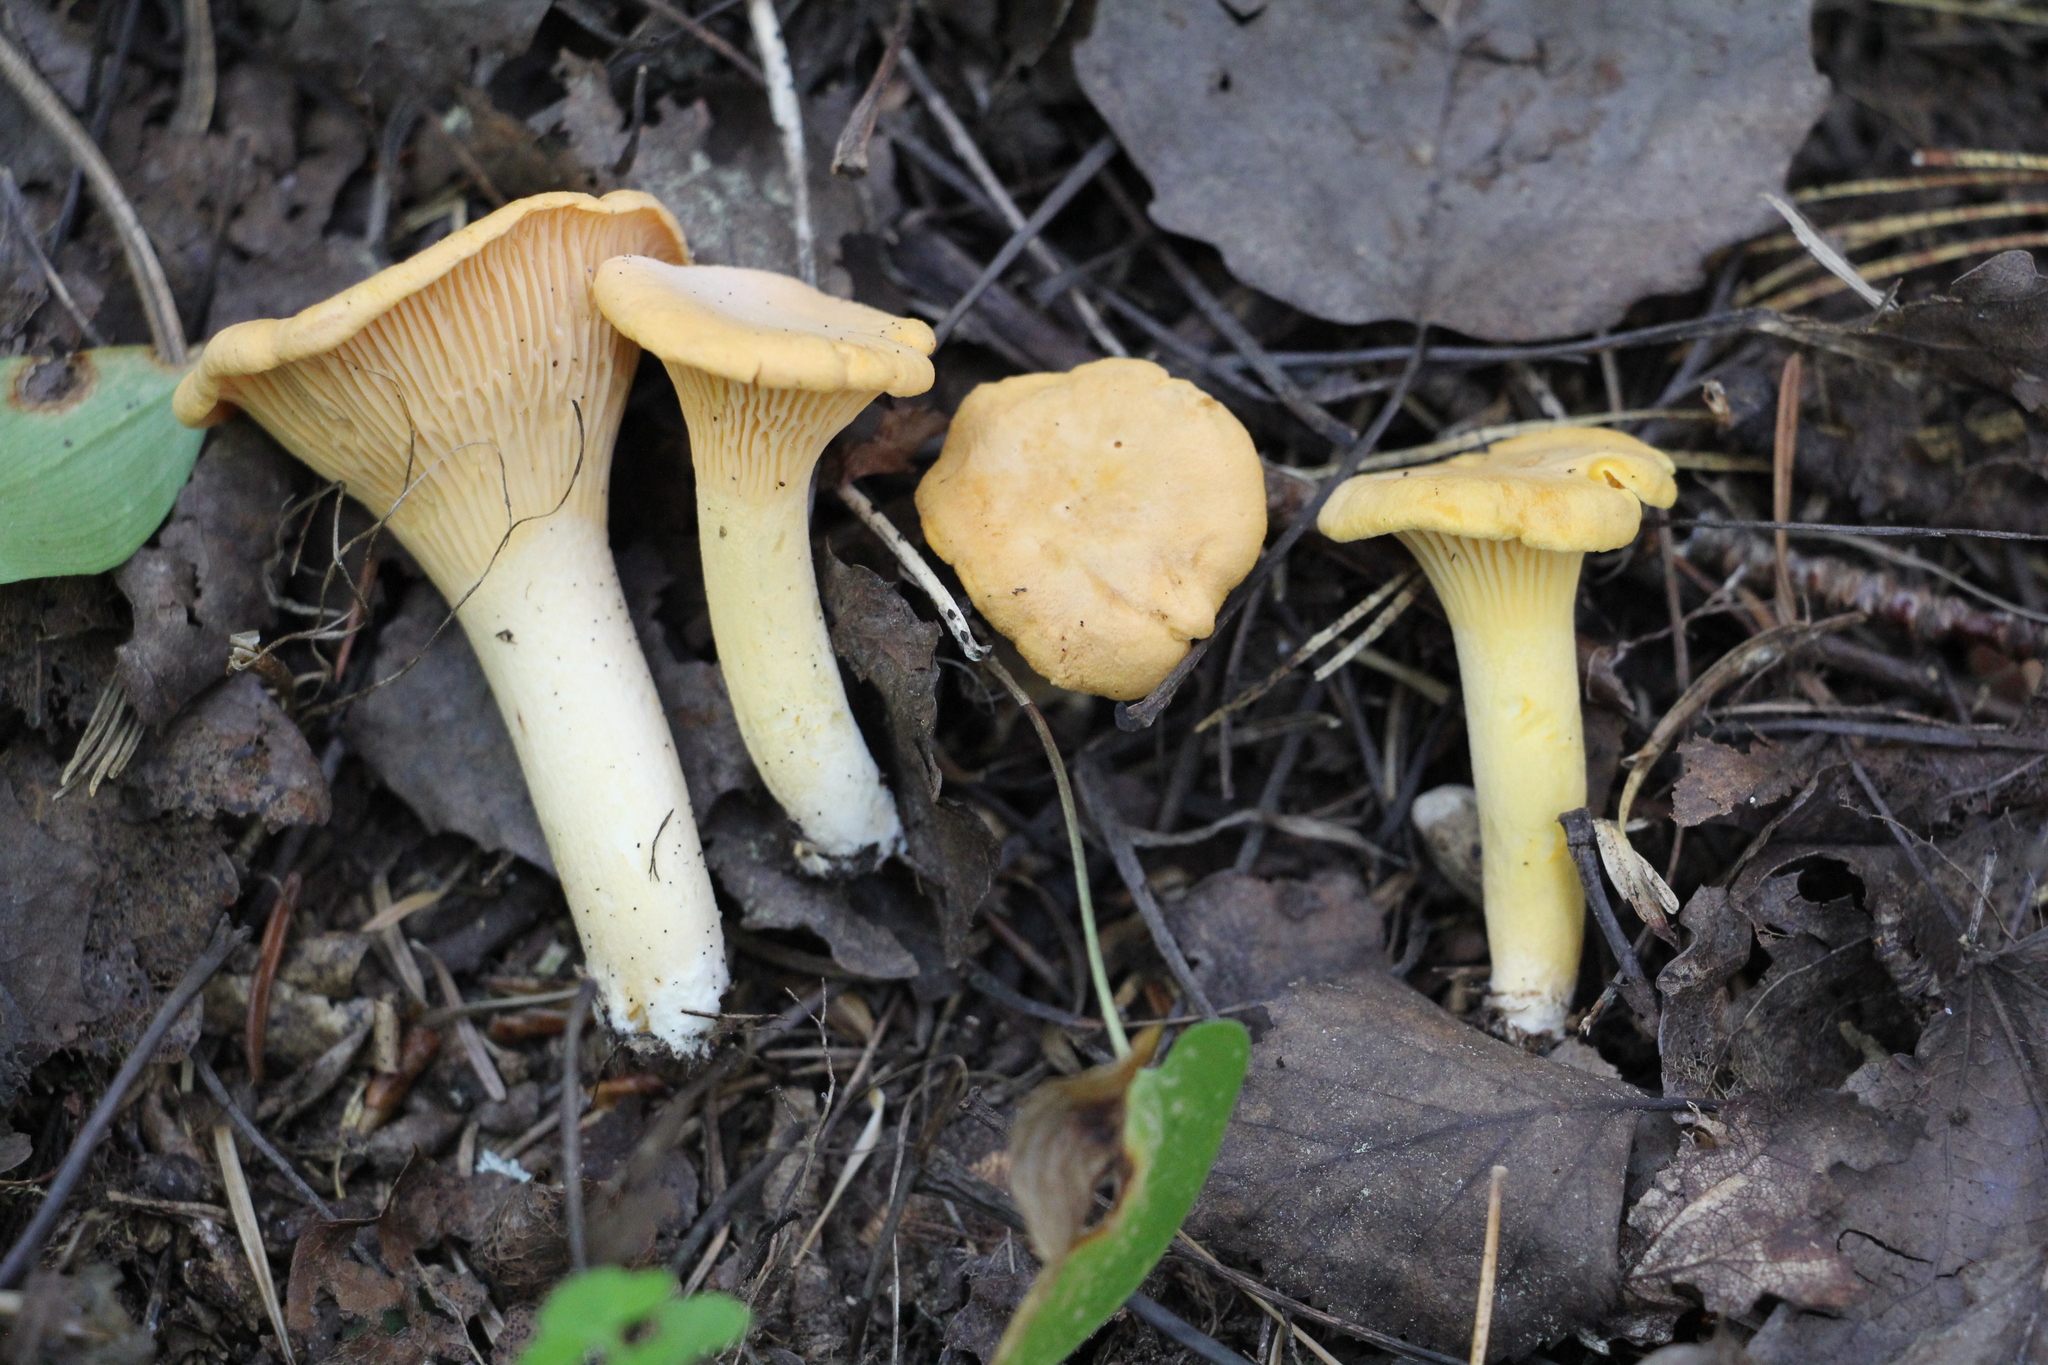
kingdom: Fungi
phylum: Basidiomycota
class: Agaricomycetes
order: Cantharellales
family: Hydnaceae
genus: Cantharellus
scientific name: Cantharellus cibarius
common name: Chanterelle
